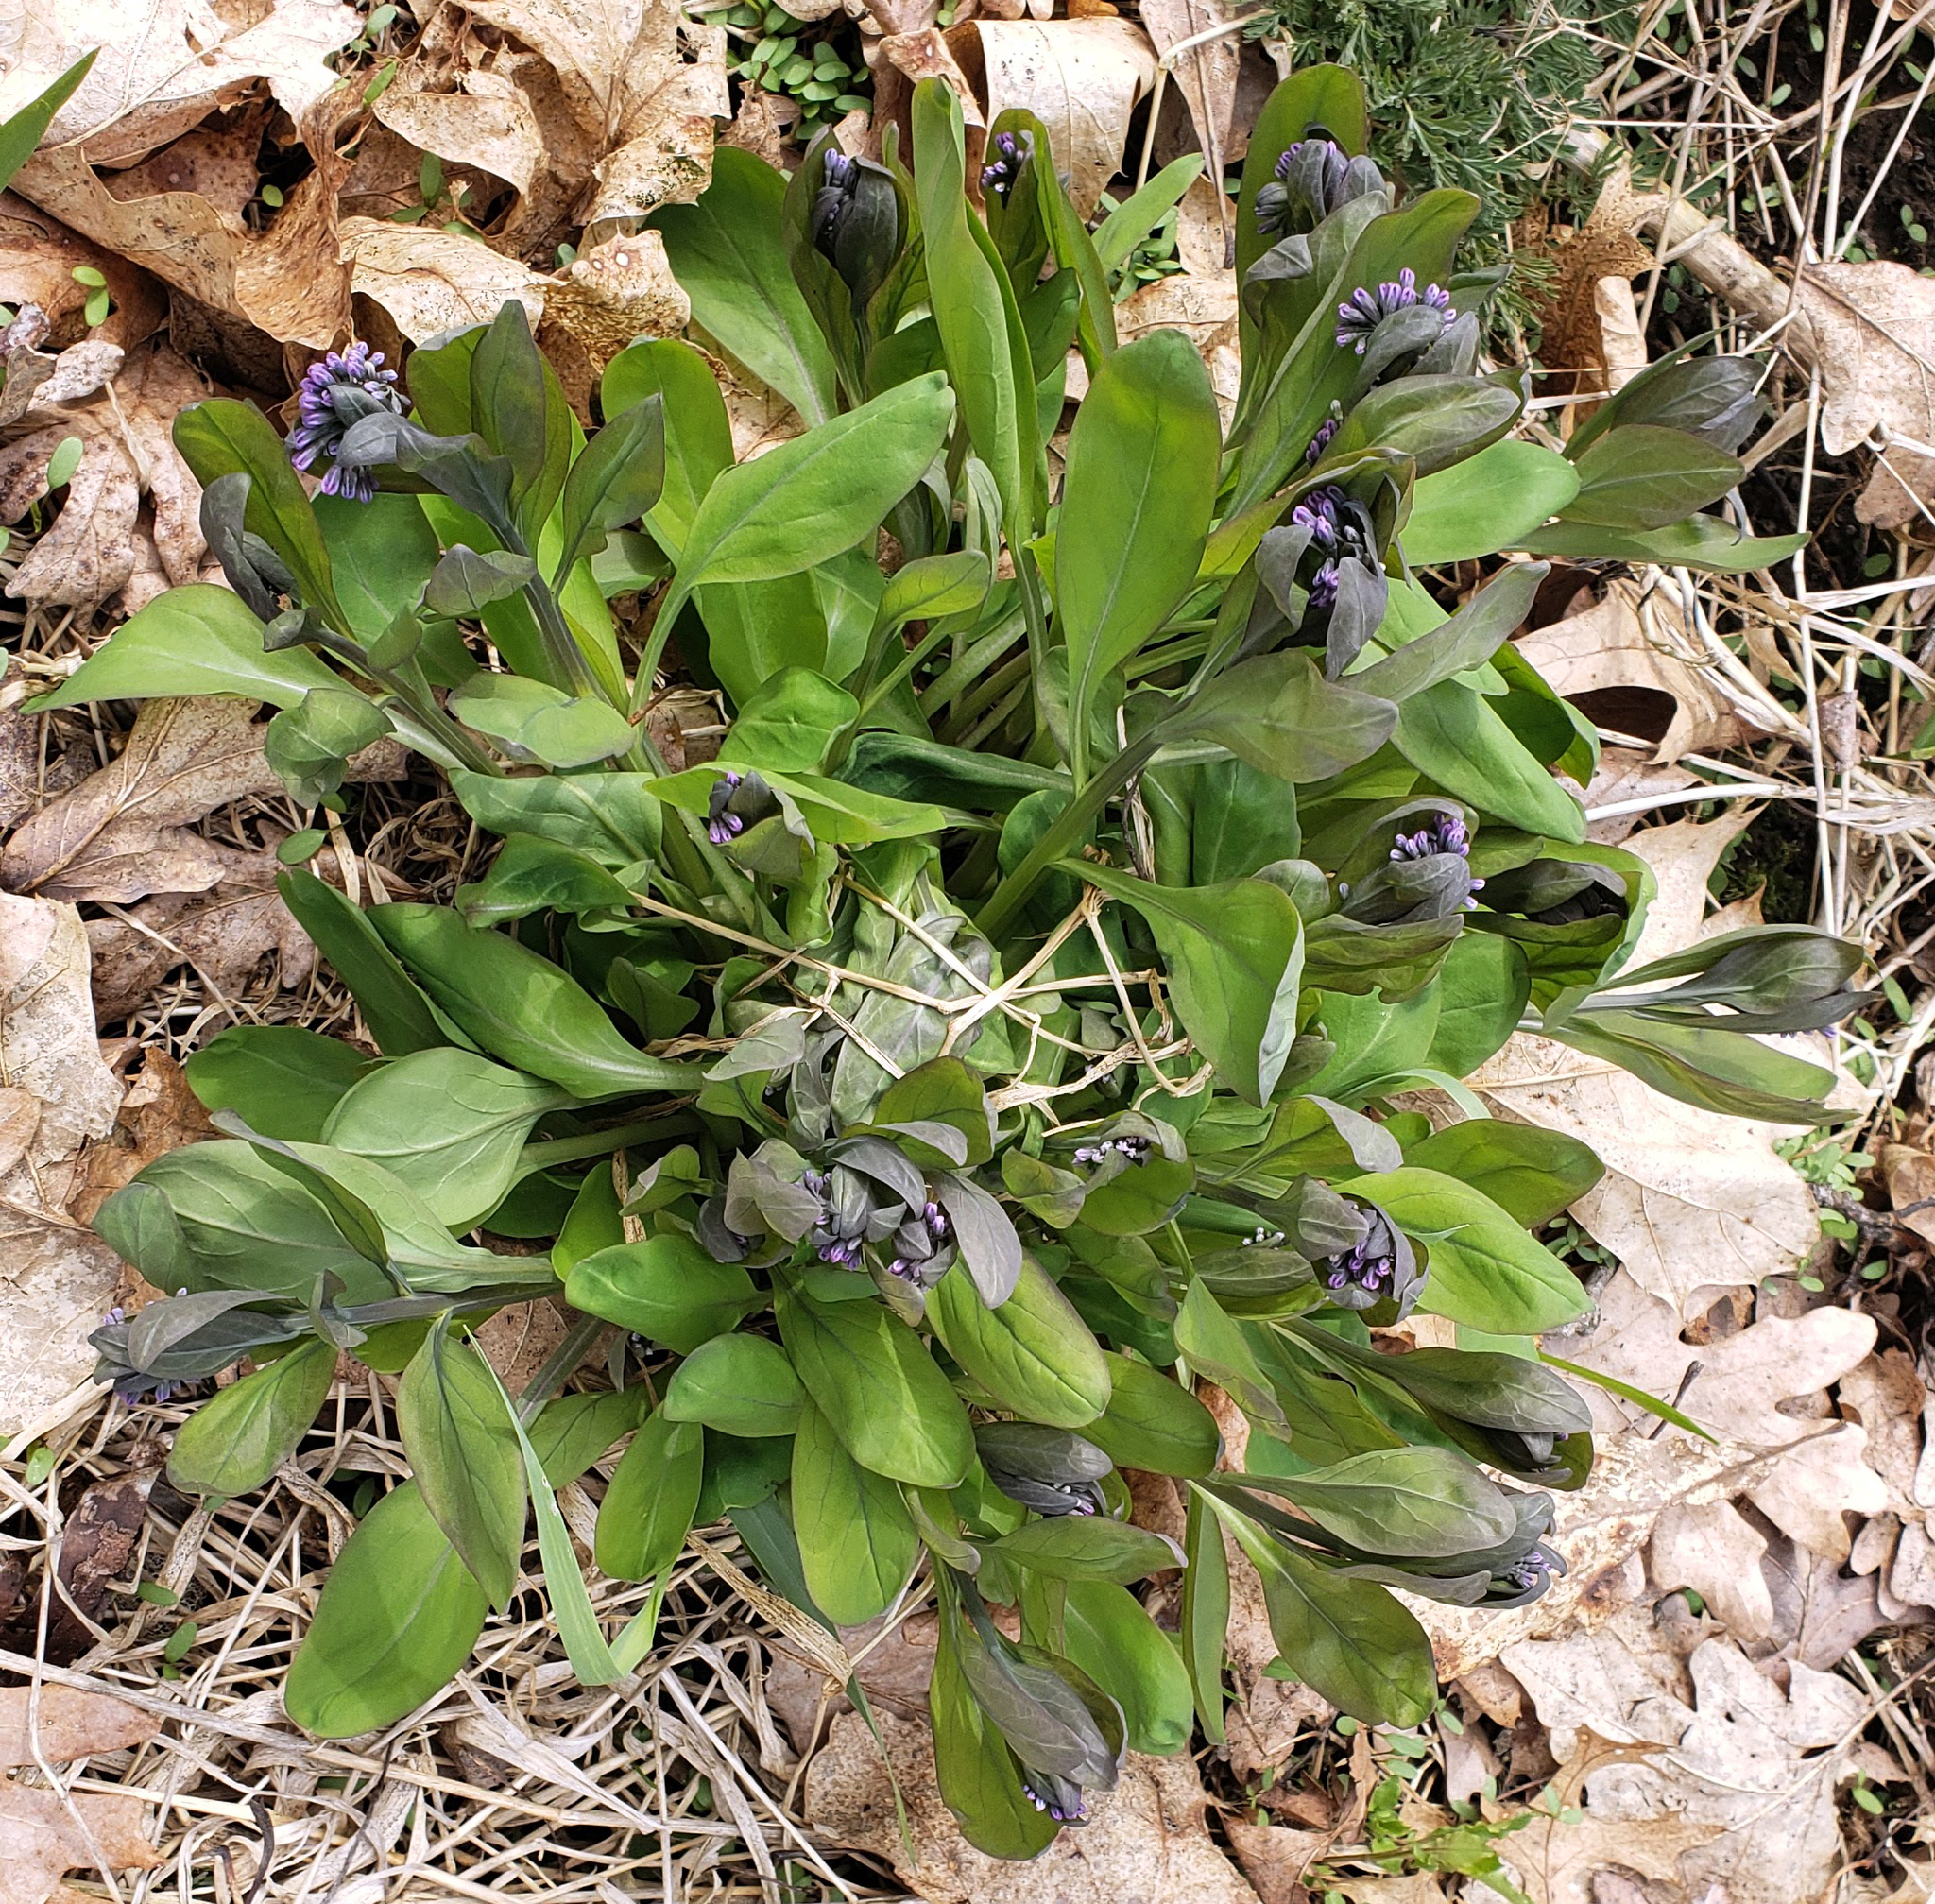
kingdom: Plantae
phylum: Tracheophyta
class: Magnoliopsida
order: Boraginales
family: Boraginaceae
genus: Mertensia
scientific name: Mertensia virginica
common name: Virginia bluebells
